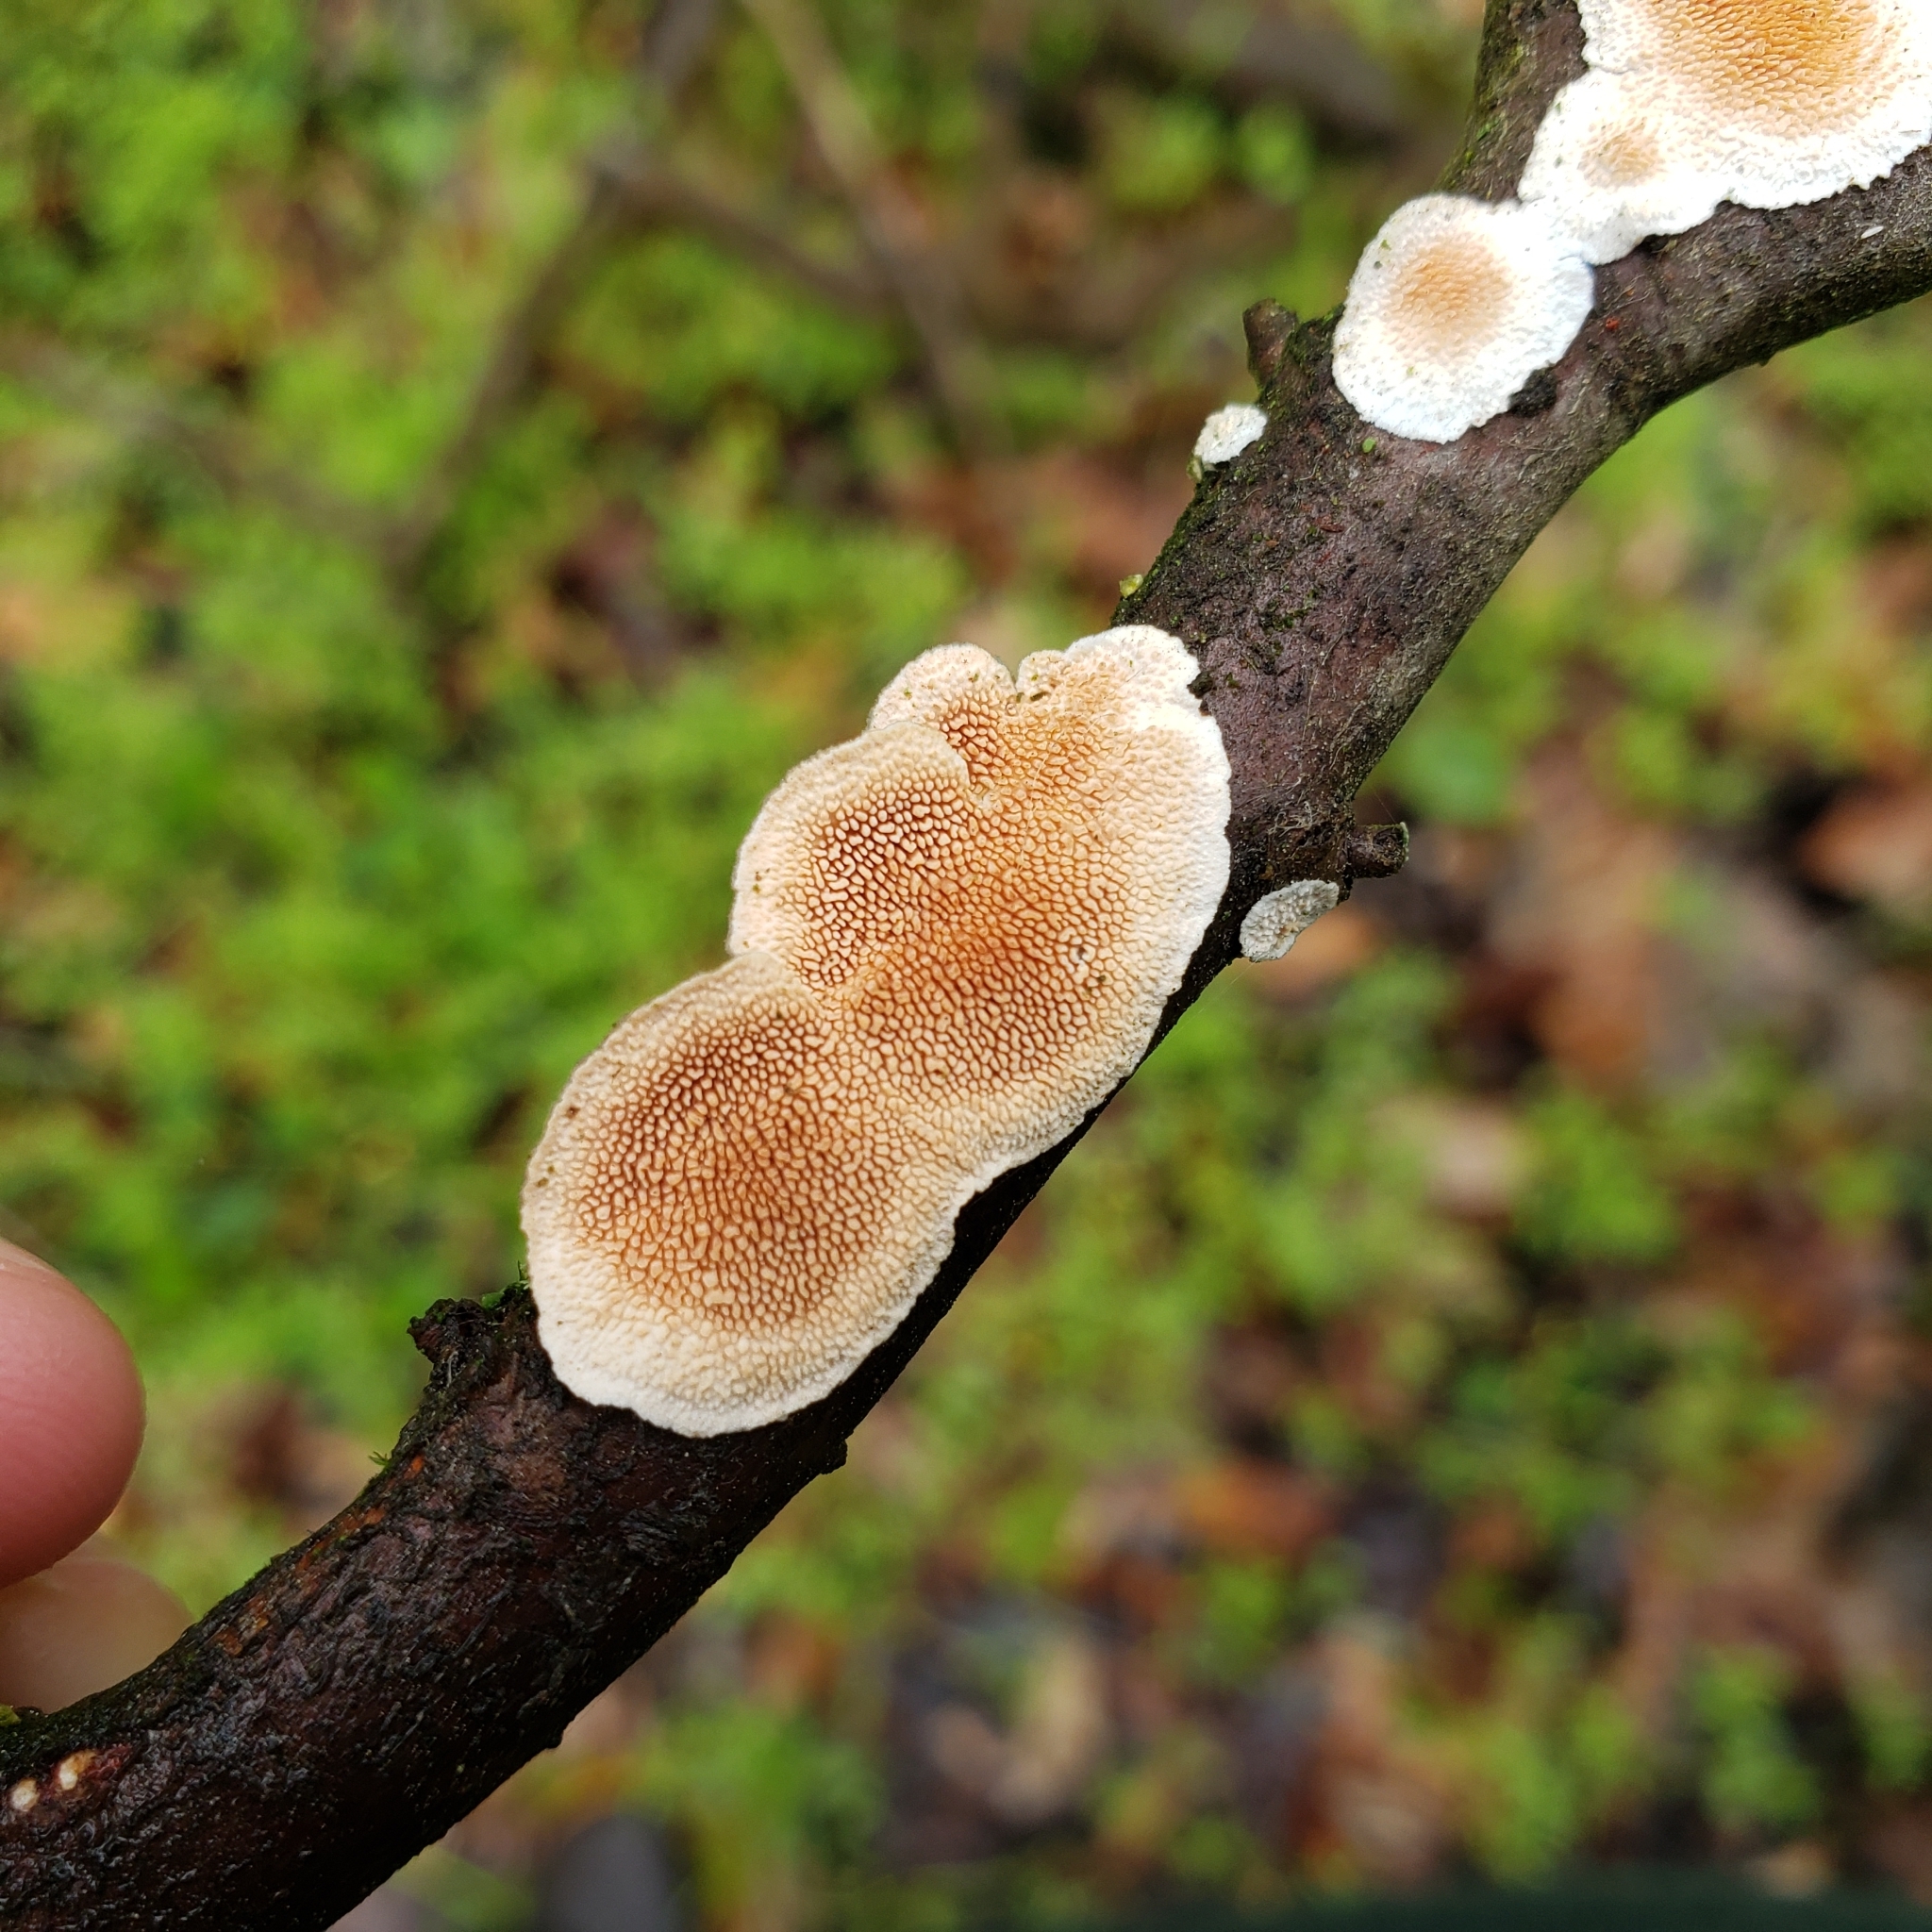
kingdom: Fungi
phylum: Basidiomycota
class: Agaricomycetes
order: Polyporales
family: Steccherinaceae
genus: Steccherinum
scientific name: Steccherinum bourdotii
